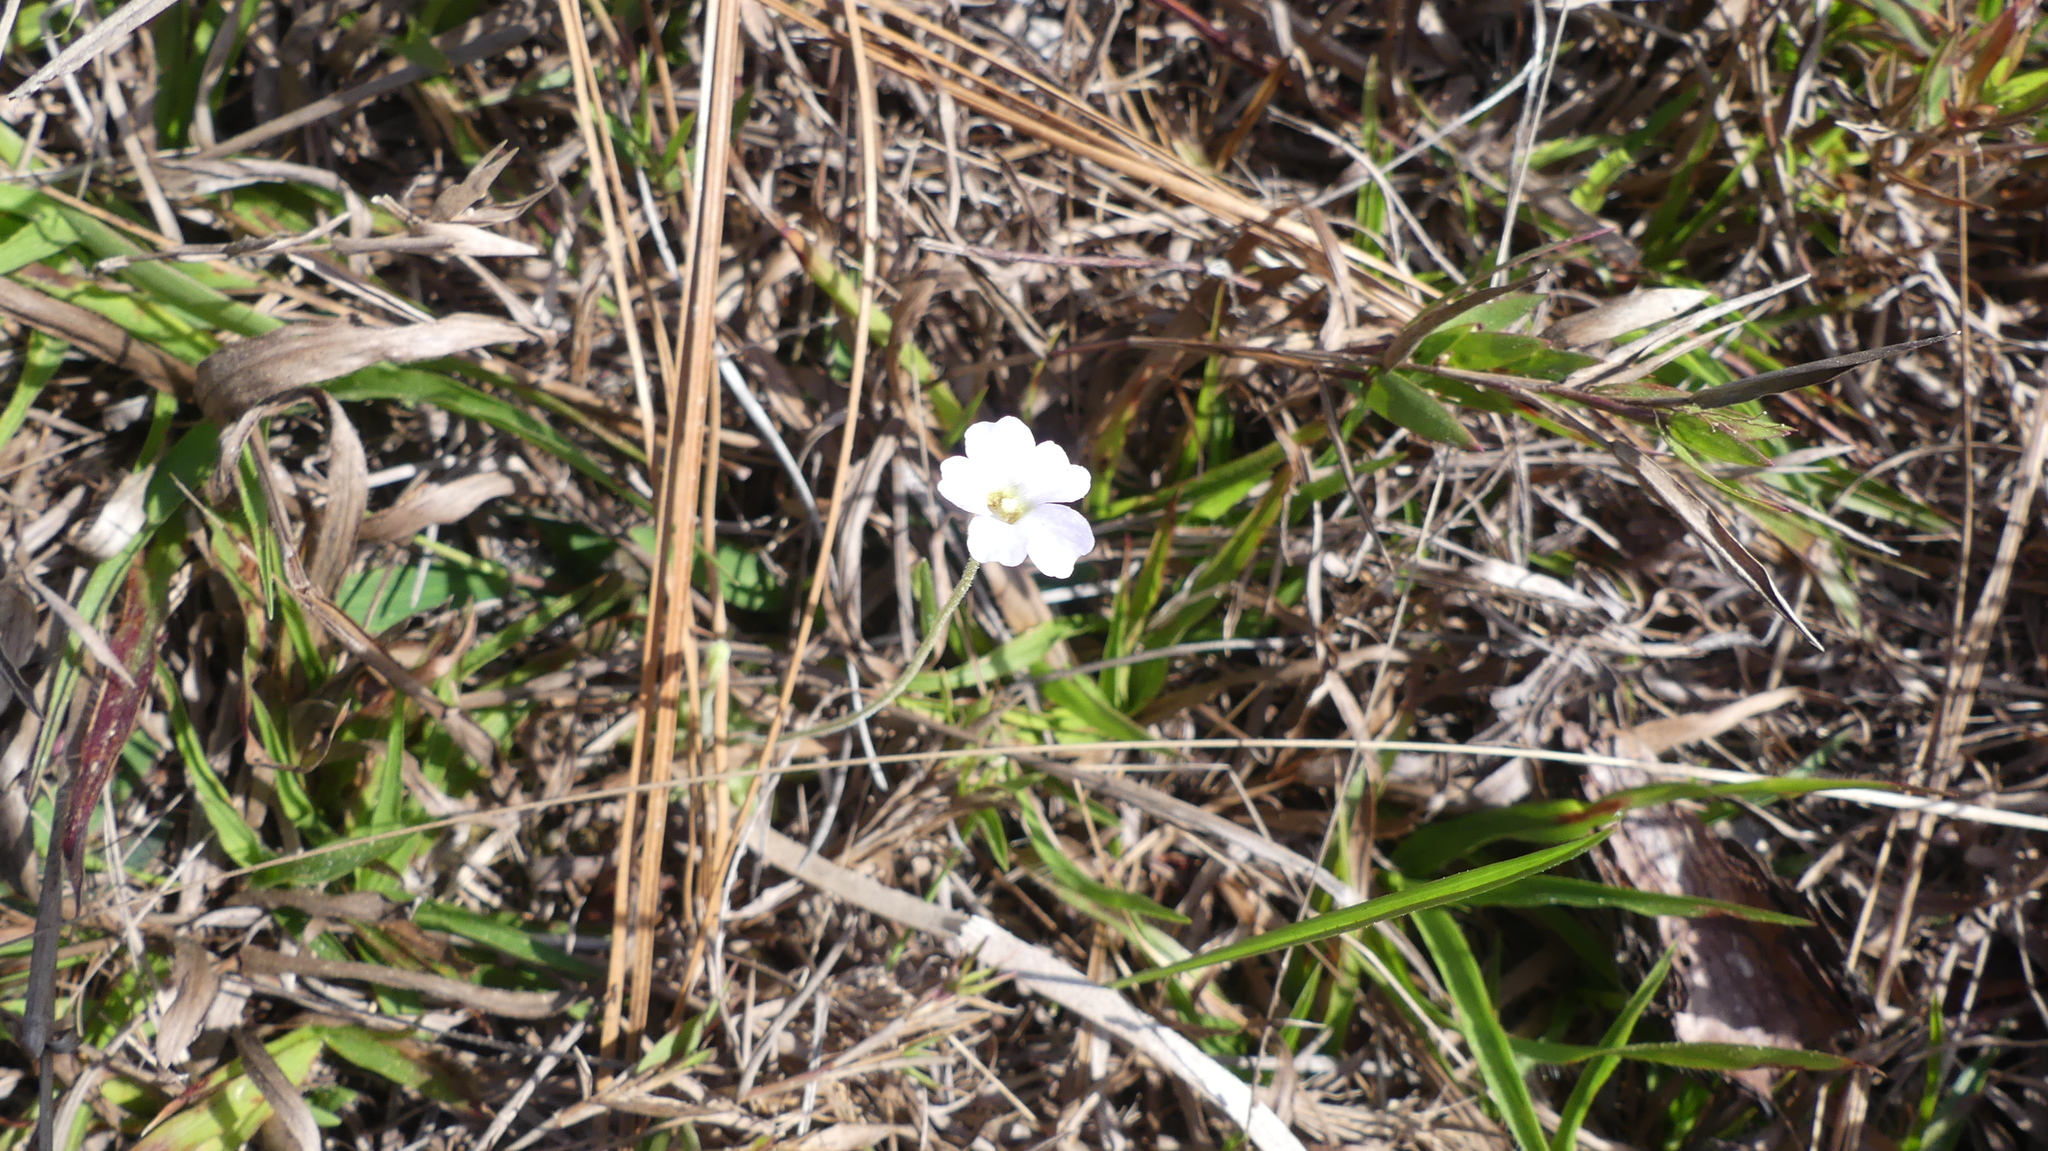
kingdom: Plantae
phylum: Tracheophyta
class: Magnoliopsida
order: Lamiales
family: Lentibulariaceae
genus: Pinguicula
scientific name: Pinguicula pumila
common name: Small butterwort
